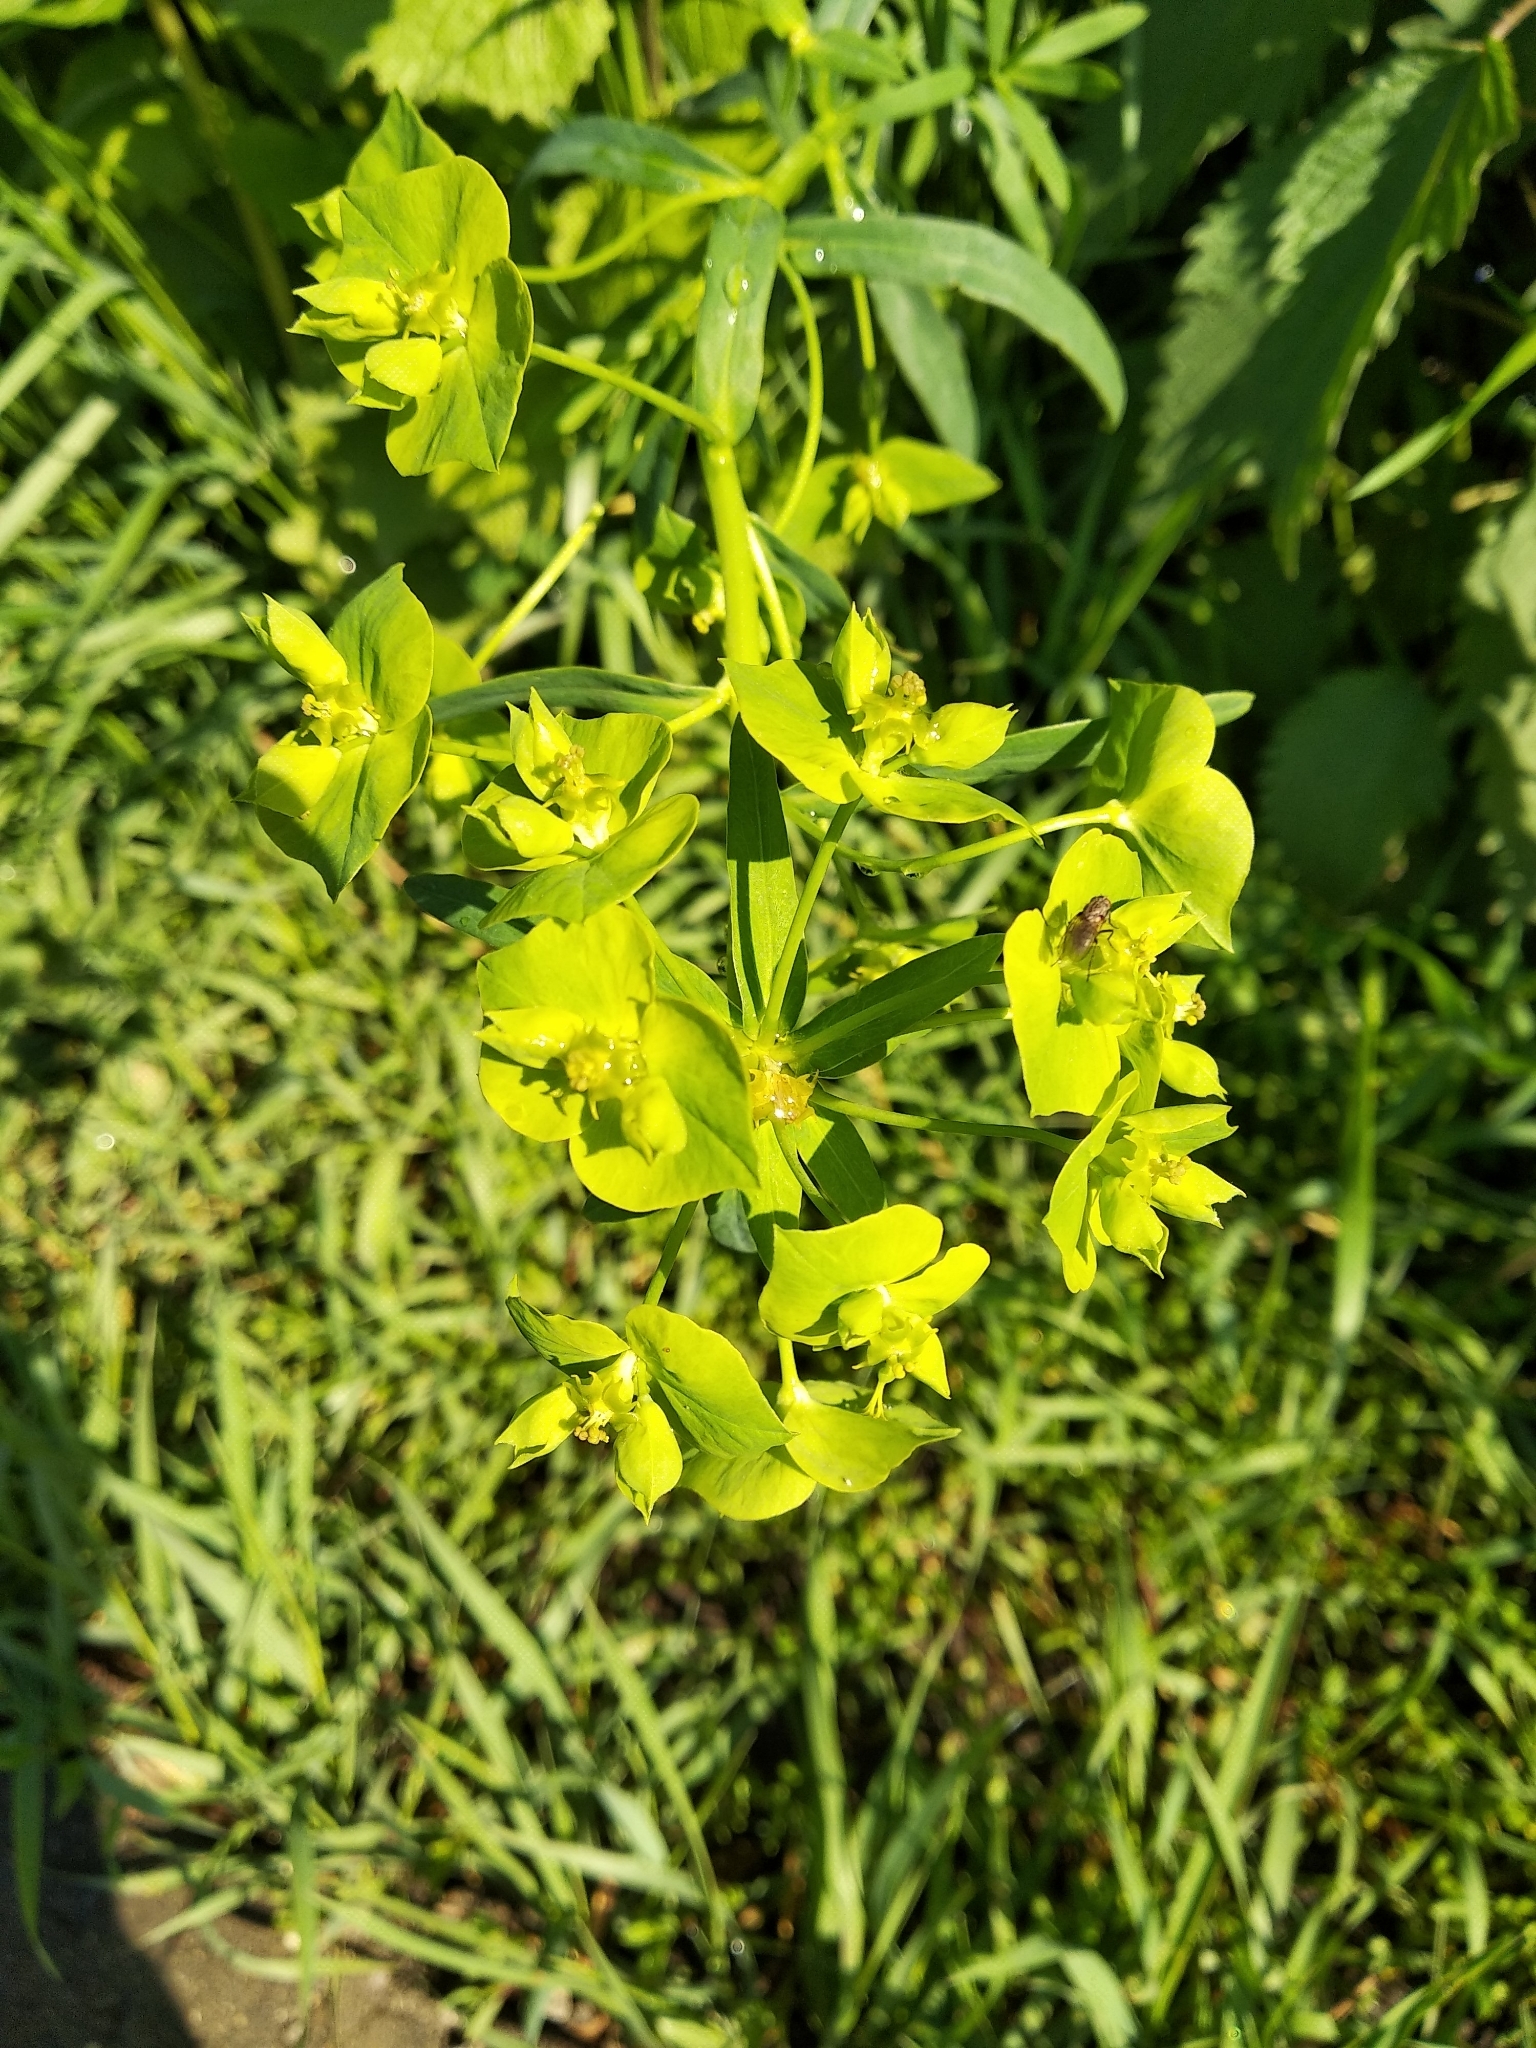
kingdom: Plantae
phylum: Tracheophyta
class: Magnoliopsida
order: Malpighiales
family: Euphorbiaceae
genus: Euphorbia
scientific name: Euphorbia virgata
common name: Leafy spurge
